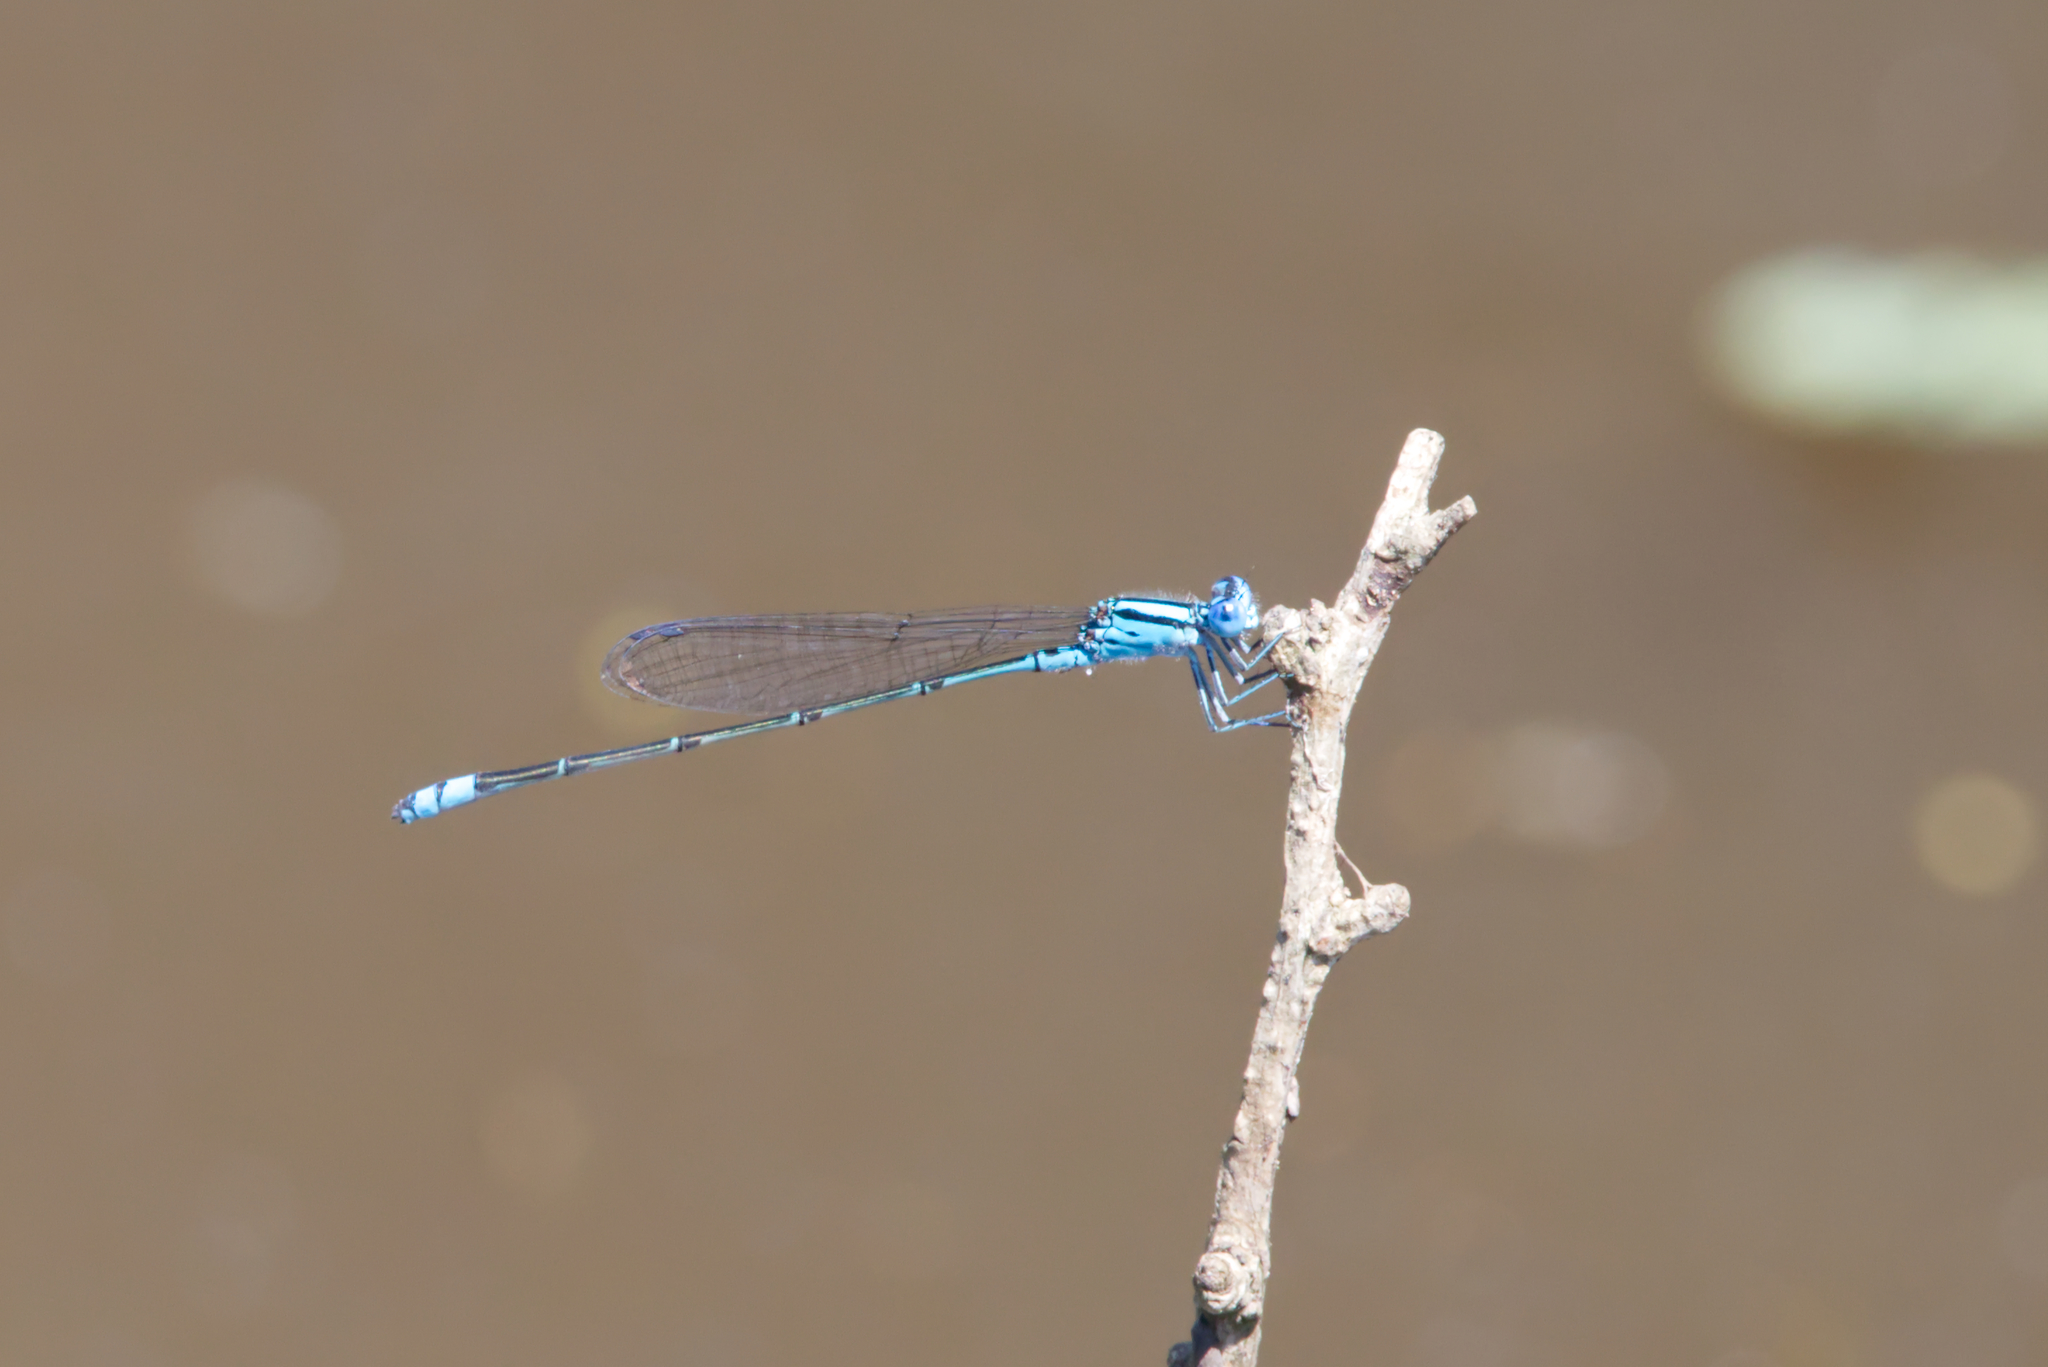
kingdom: Animalia
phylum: Arthropoda
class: Insecta
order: Odonata
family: Coenagrionidae
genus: Pseudagrion
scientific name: Pseudagrion microcephalum
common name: Blue riverdamsel
